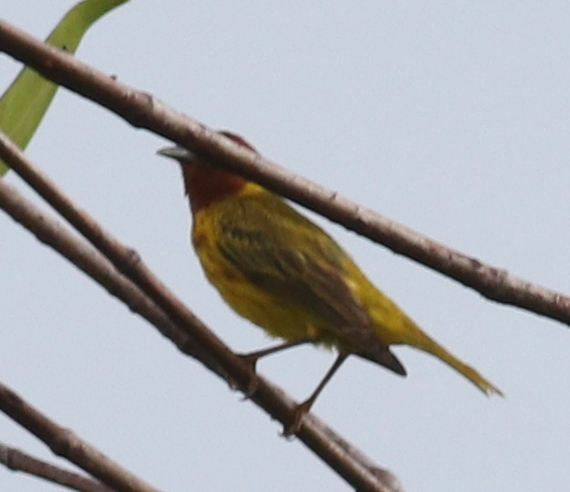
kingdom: Animalia
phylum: Chordata
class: Aves
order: Passeriformes
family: Parulidae
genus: Setophaga
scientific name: Setophaga petechia
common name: Yellow warbler
